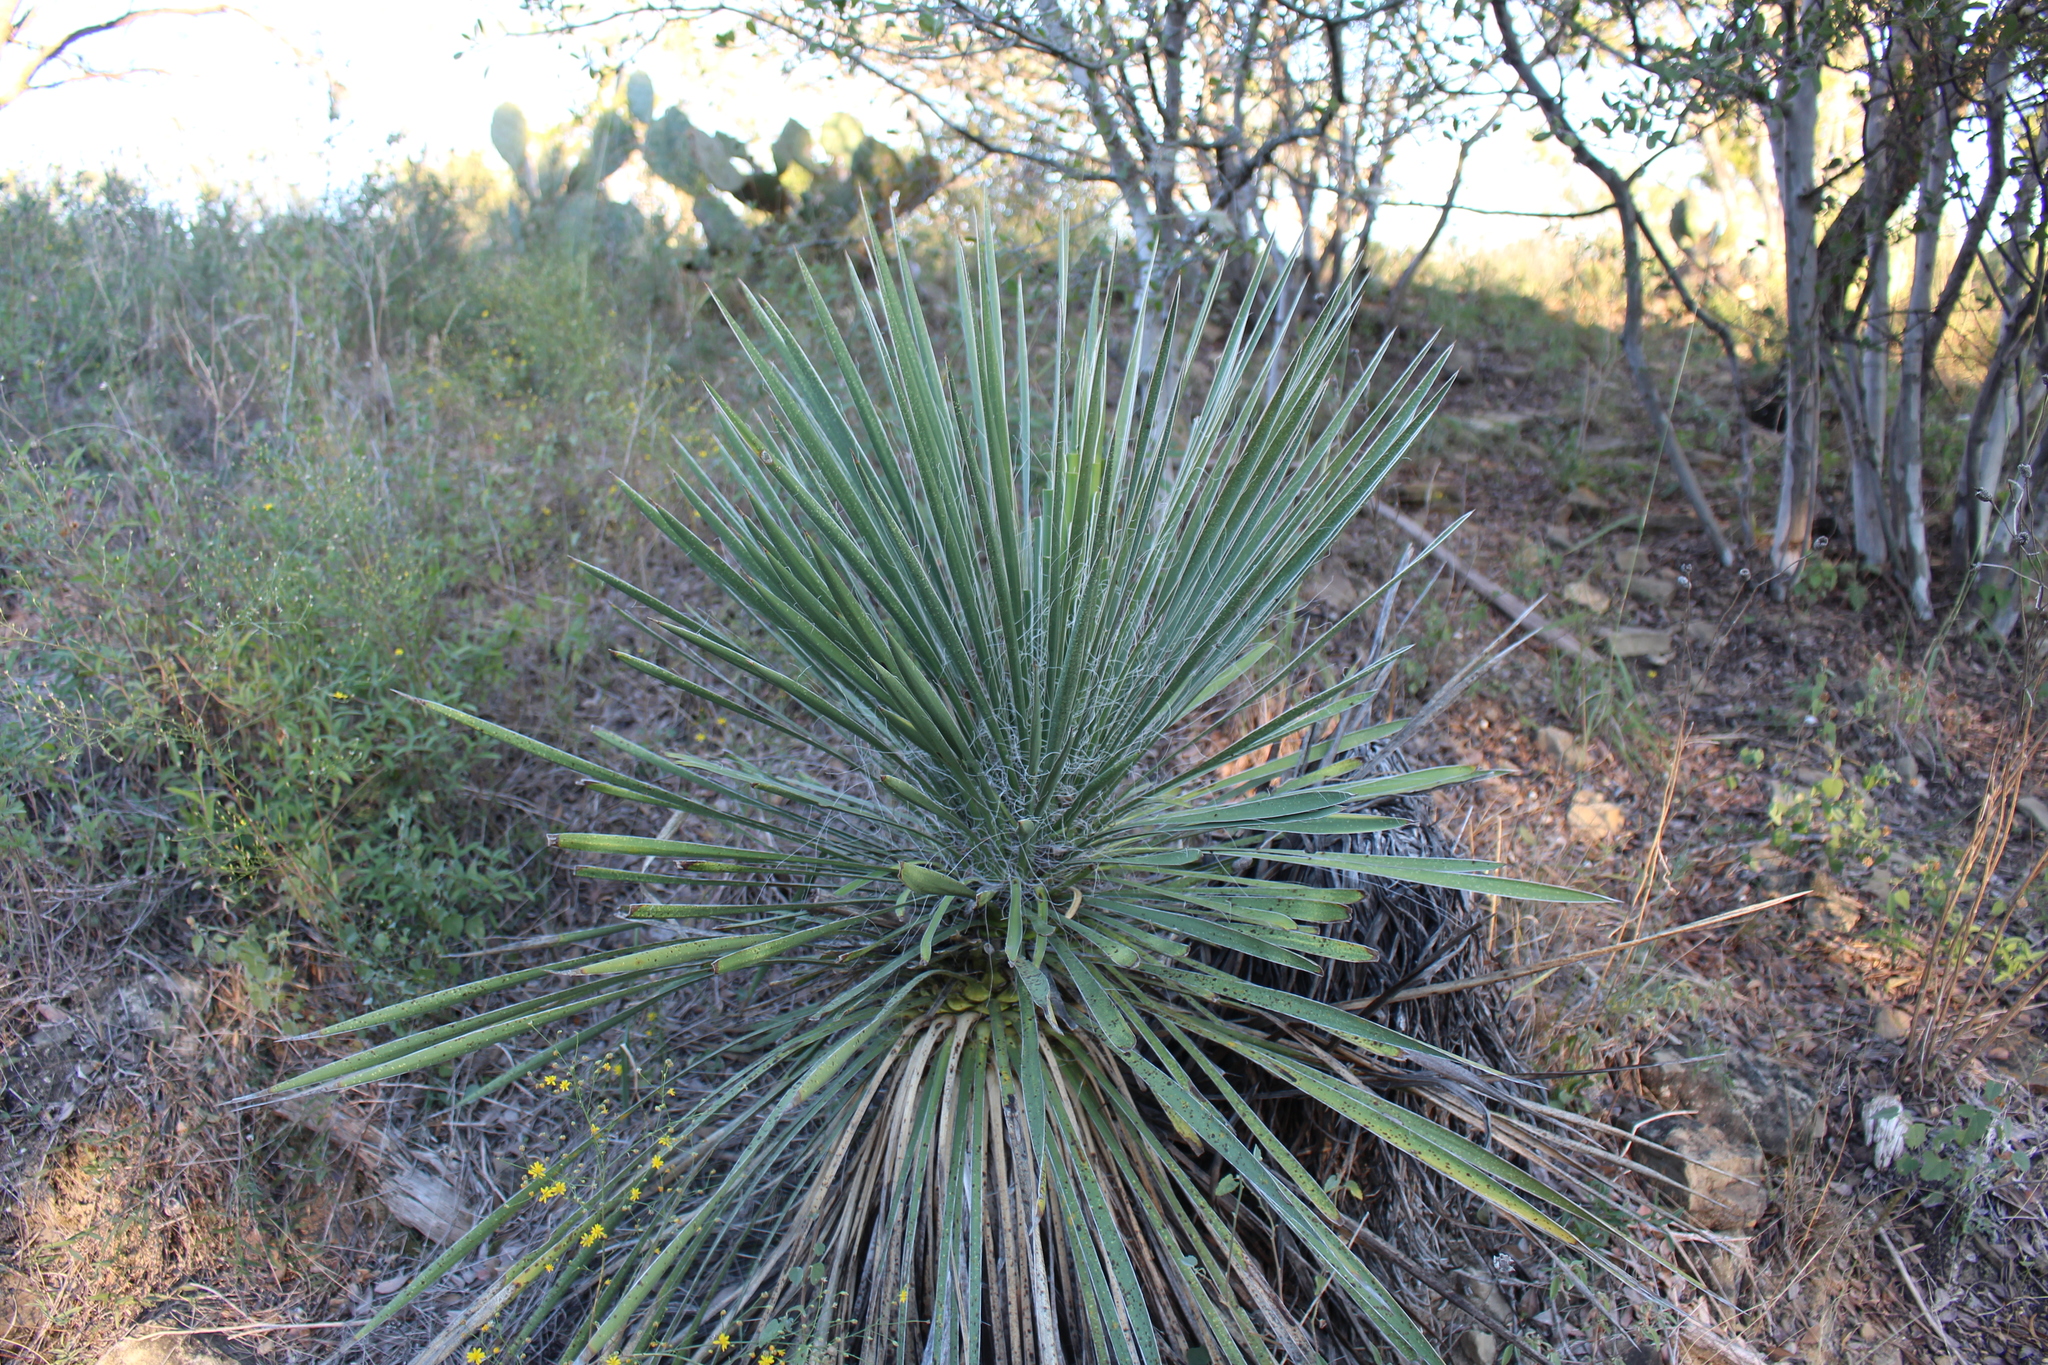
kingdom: Plantae
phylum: Tracheophyta
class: Liliopsida
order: Asparagales
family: Asparagaceae
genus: Yucca
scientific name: Yucca constricta
